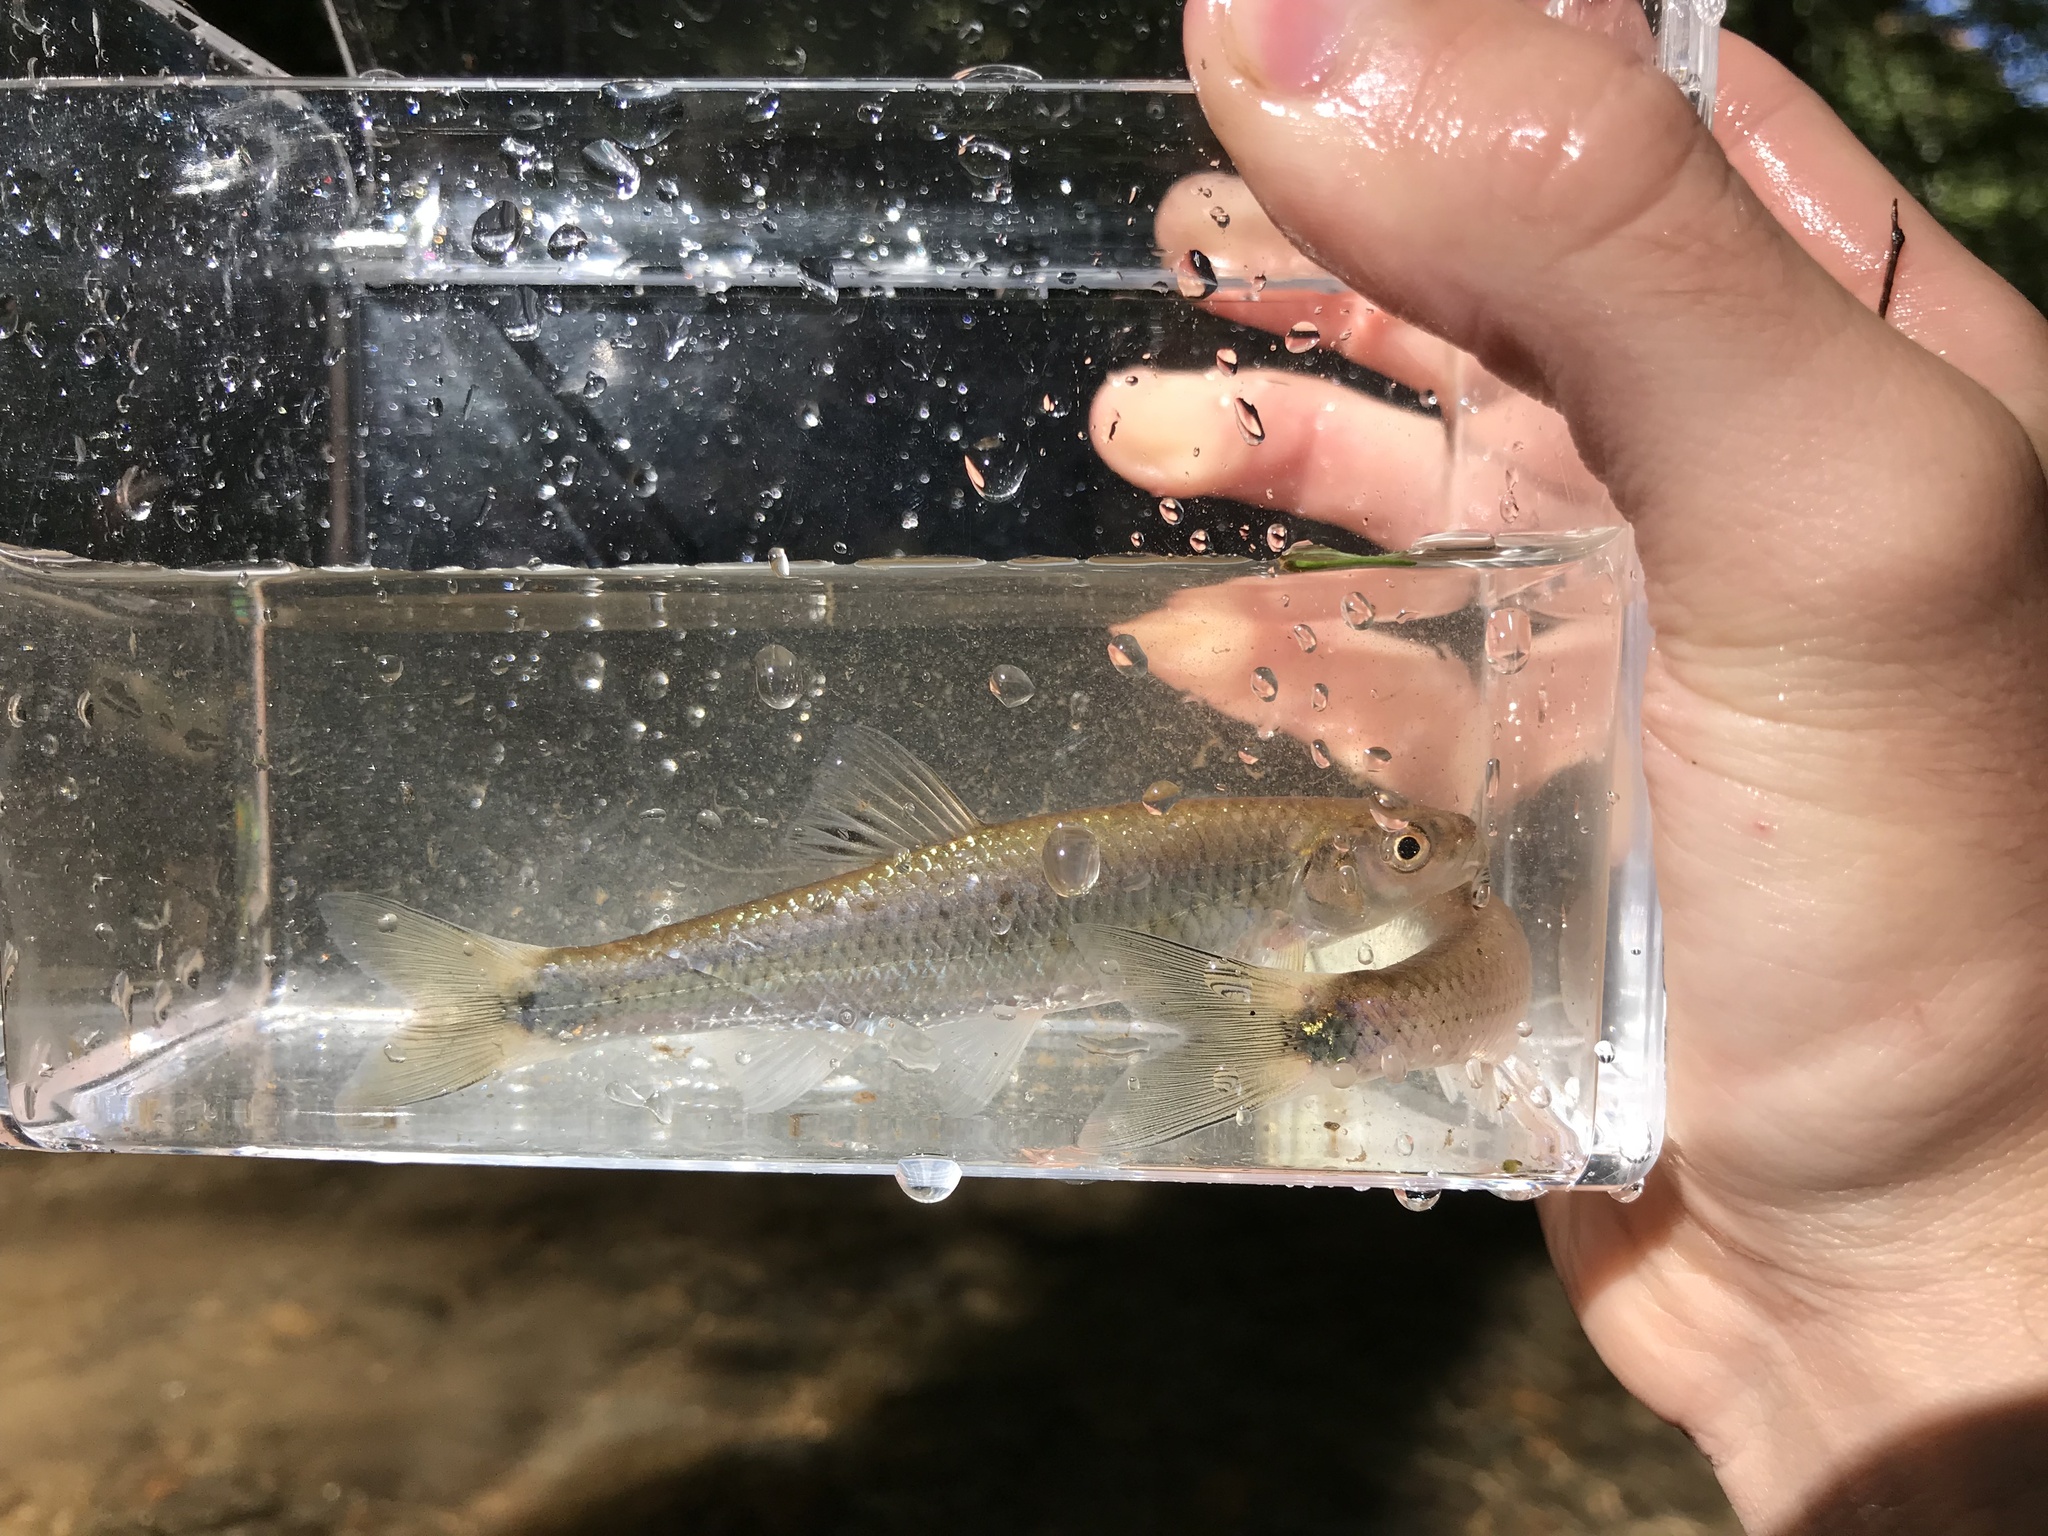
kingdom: Animalia
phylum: Chordata
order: Cypriniformes
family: Cyprinidae
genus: Cyprinella
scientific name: Cyprinella galactura
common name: Whitetail shiner
